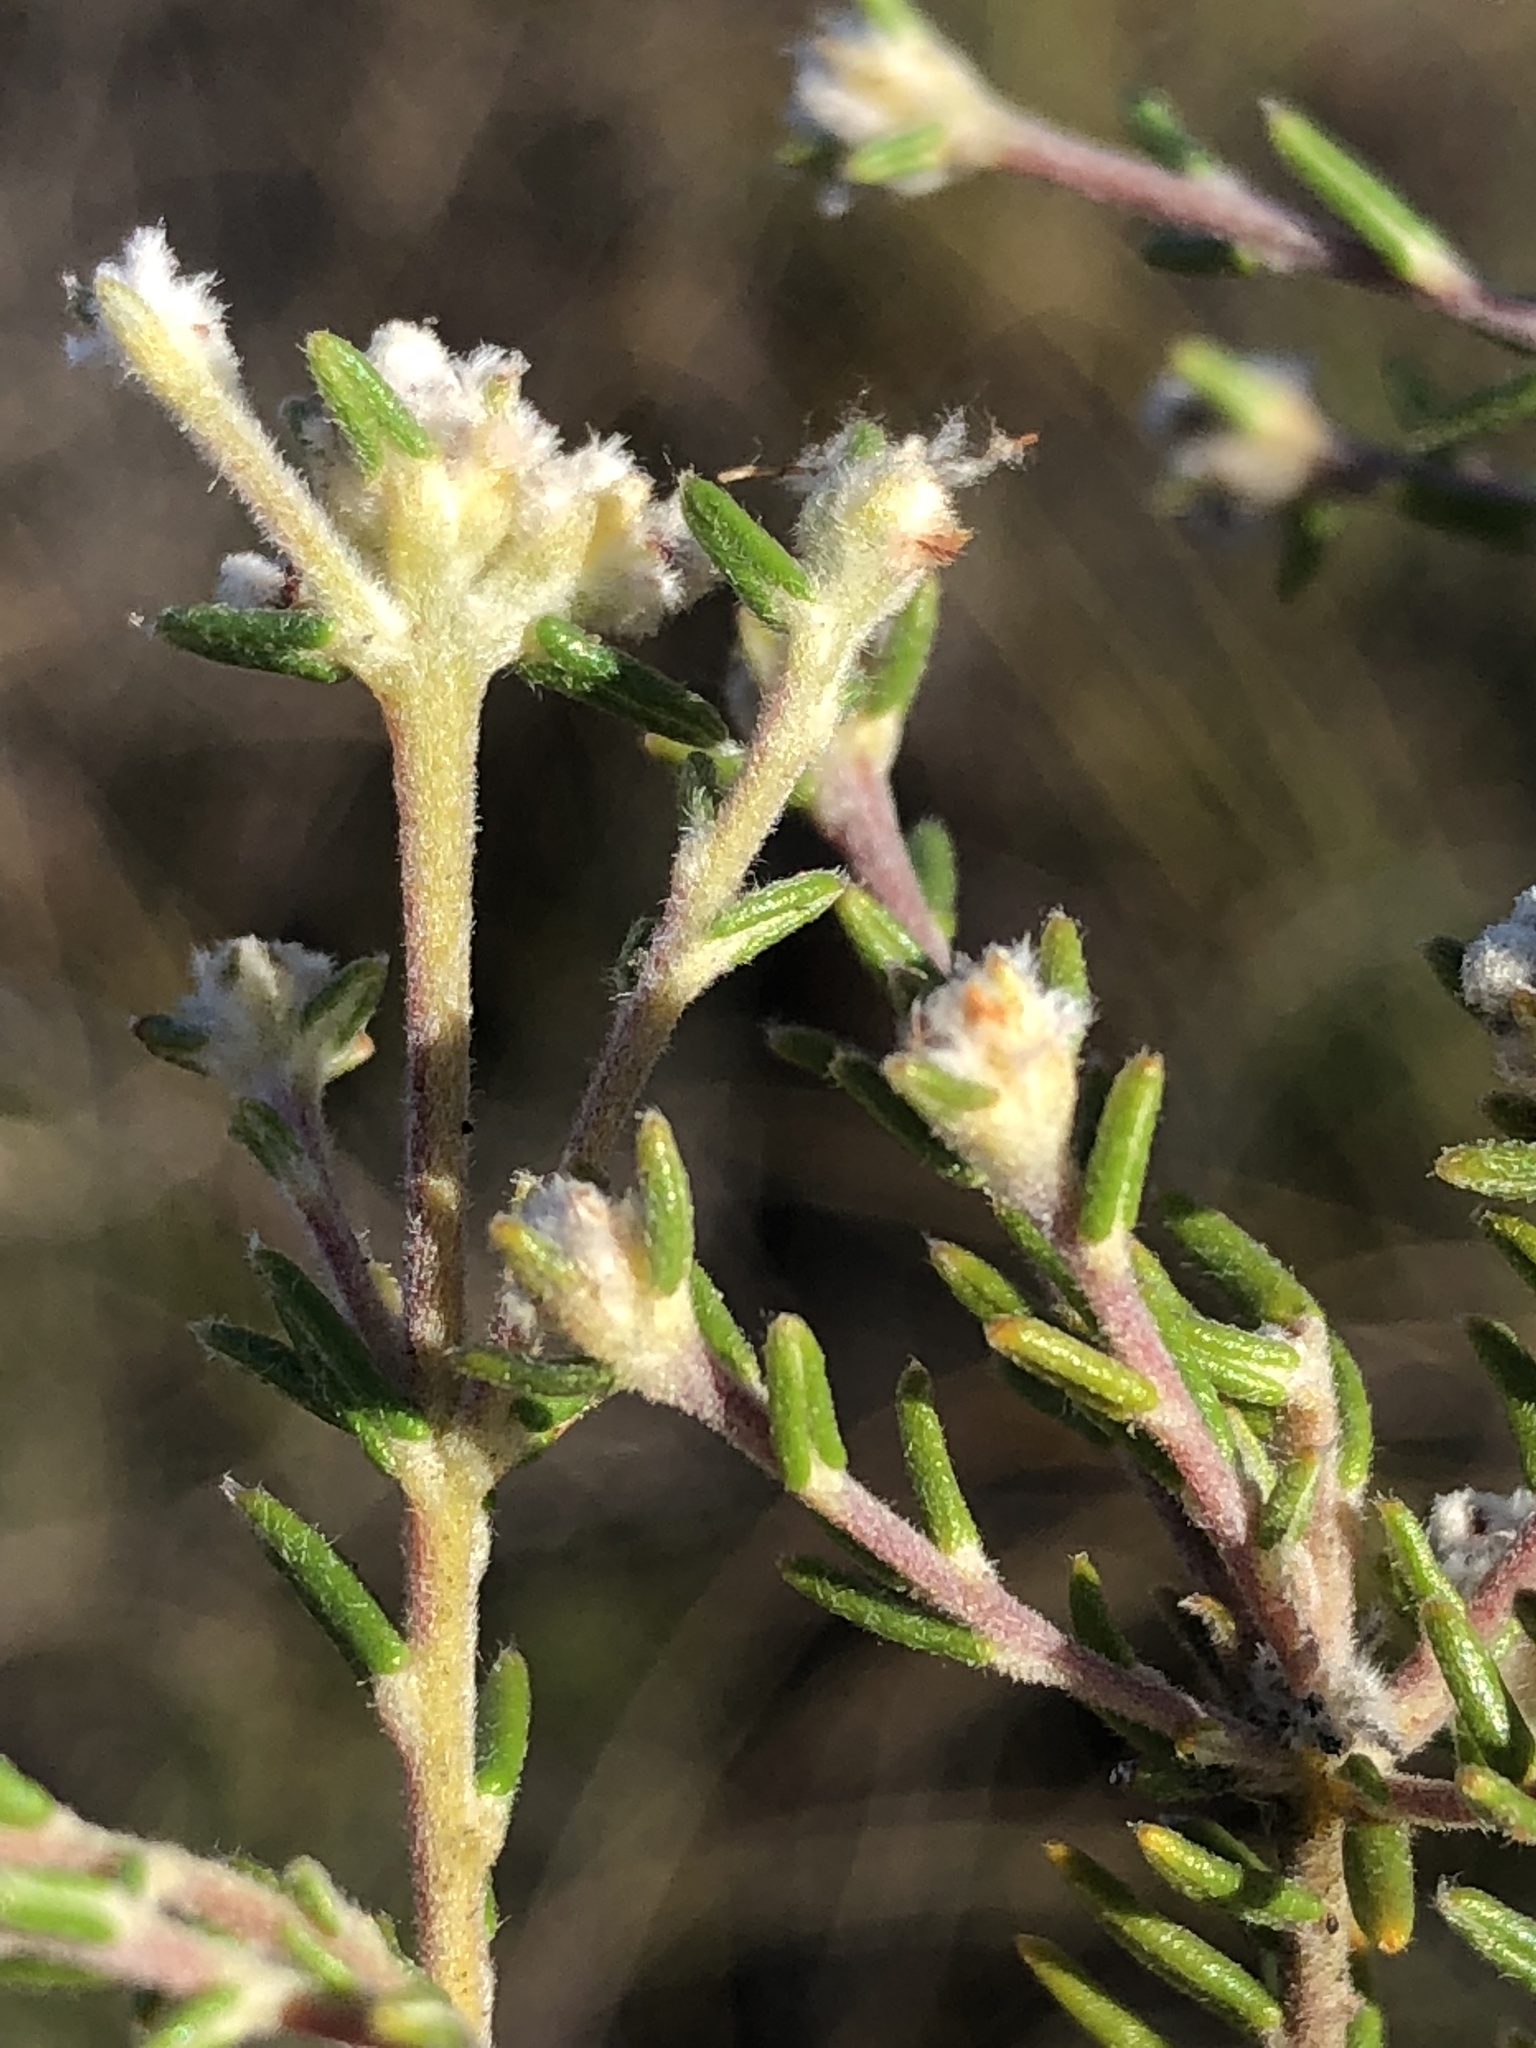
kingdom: Plantae
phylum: Tracheophyta
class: Magnoliopsida
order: Rosales
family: Rhamnaceae
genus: Phylica
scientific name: Phylica karroica
